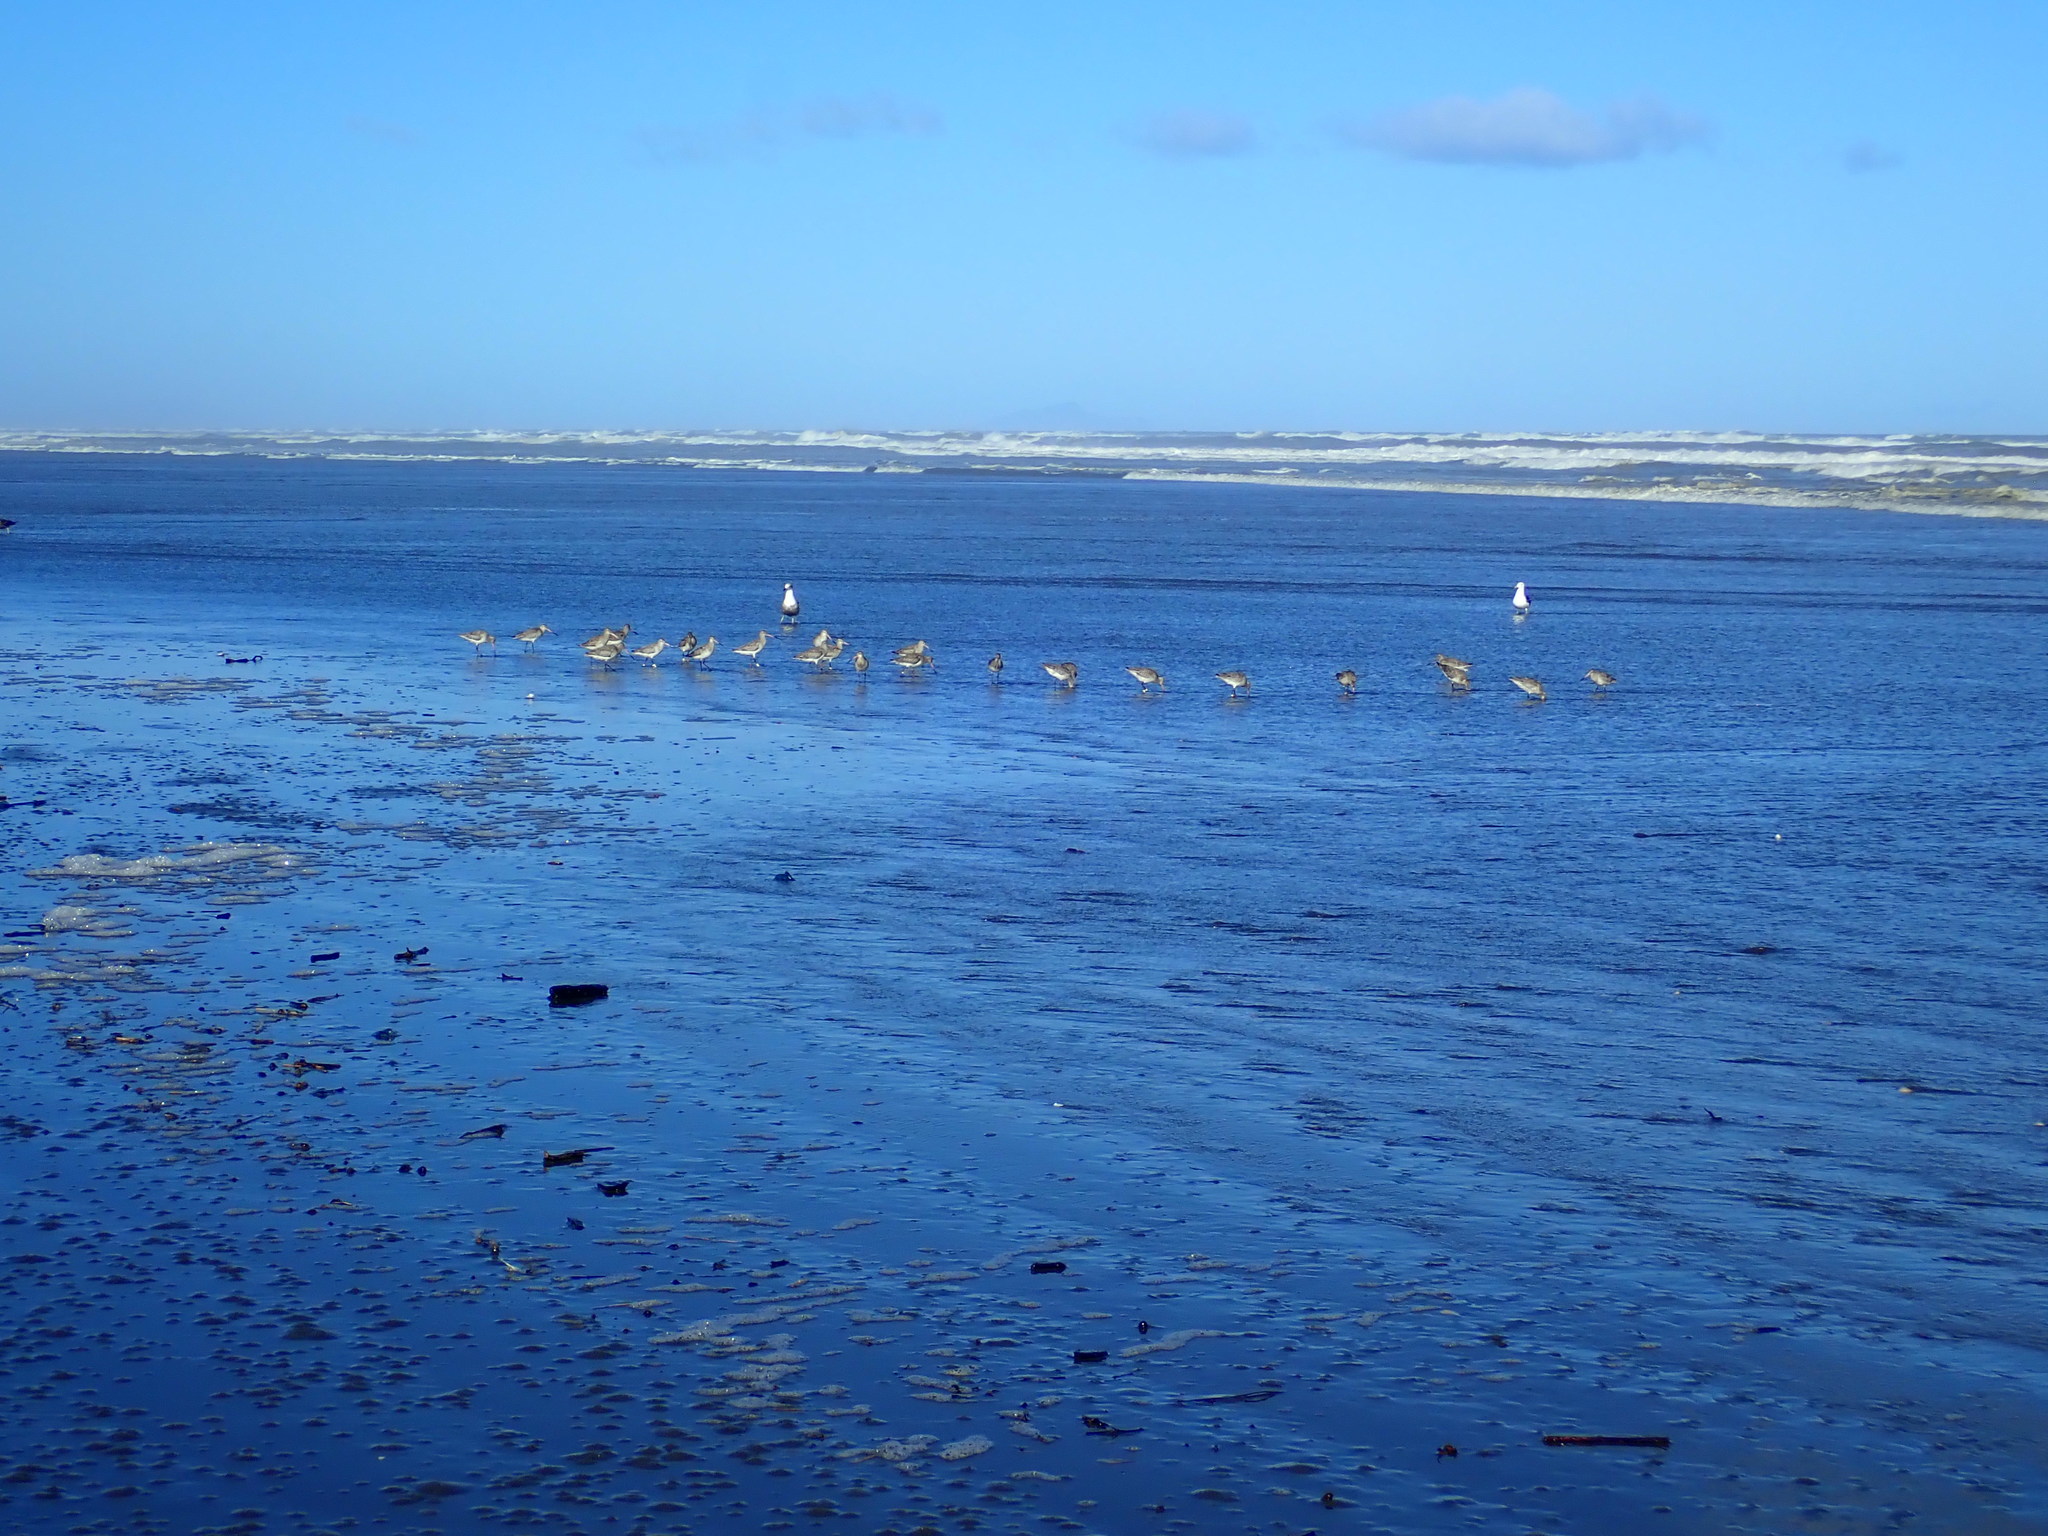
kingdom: Animalia
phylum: Chordata
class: Aves
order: Charadriiformes
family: Scolopacidae
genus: Limosa
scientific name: Limosa lapponica
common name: Bar-tailed godwit
